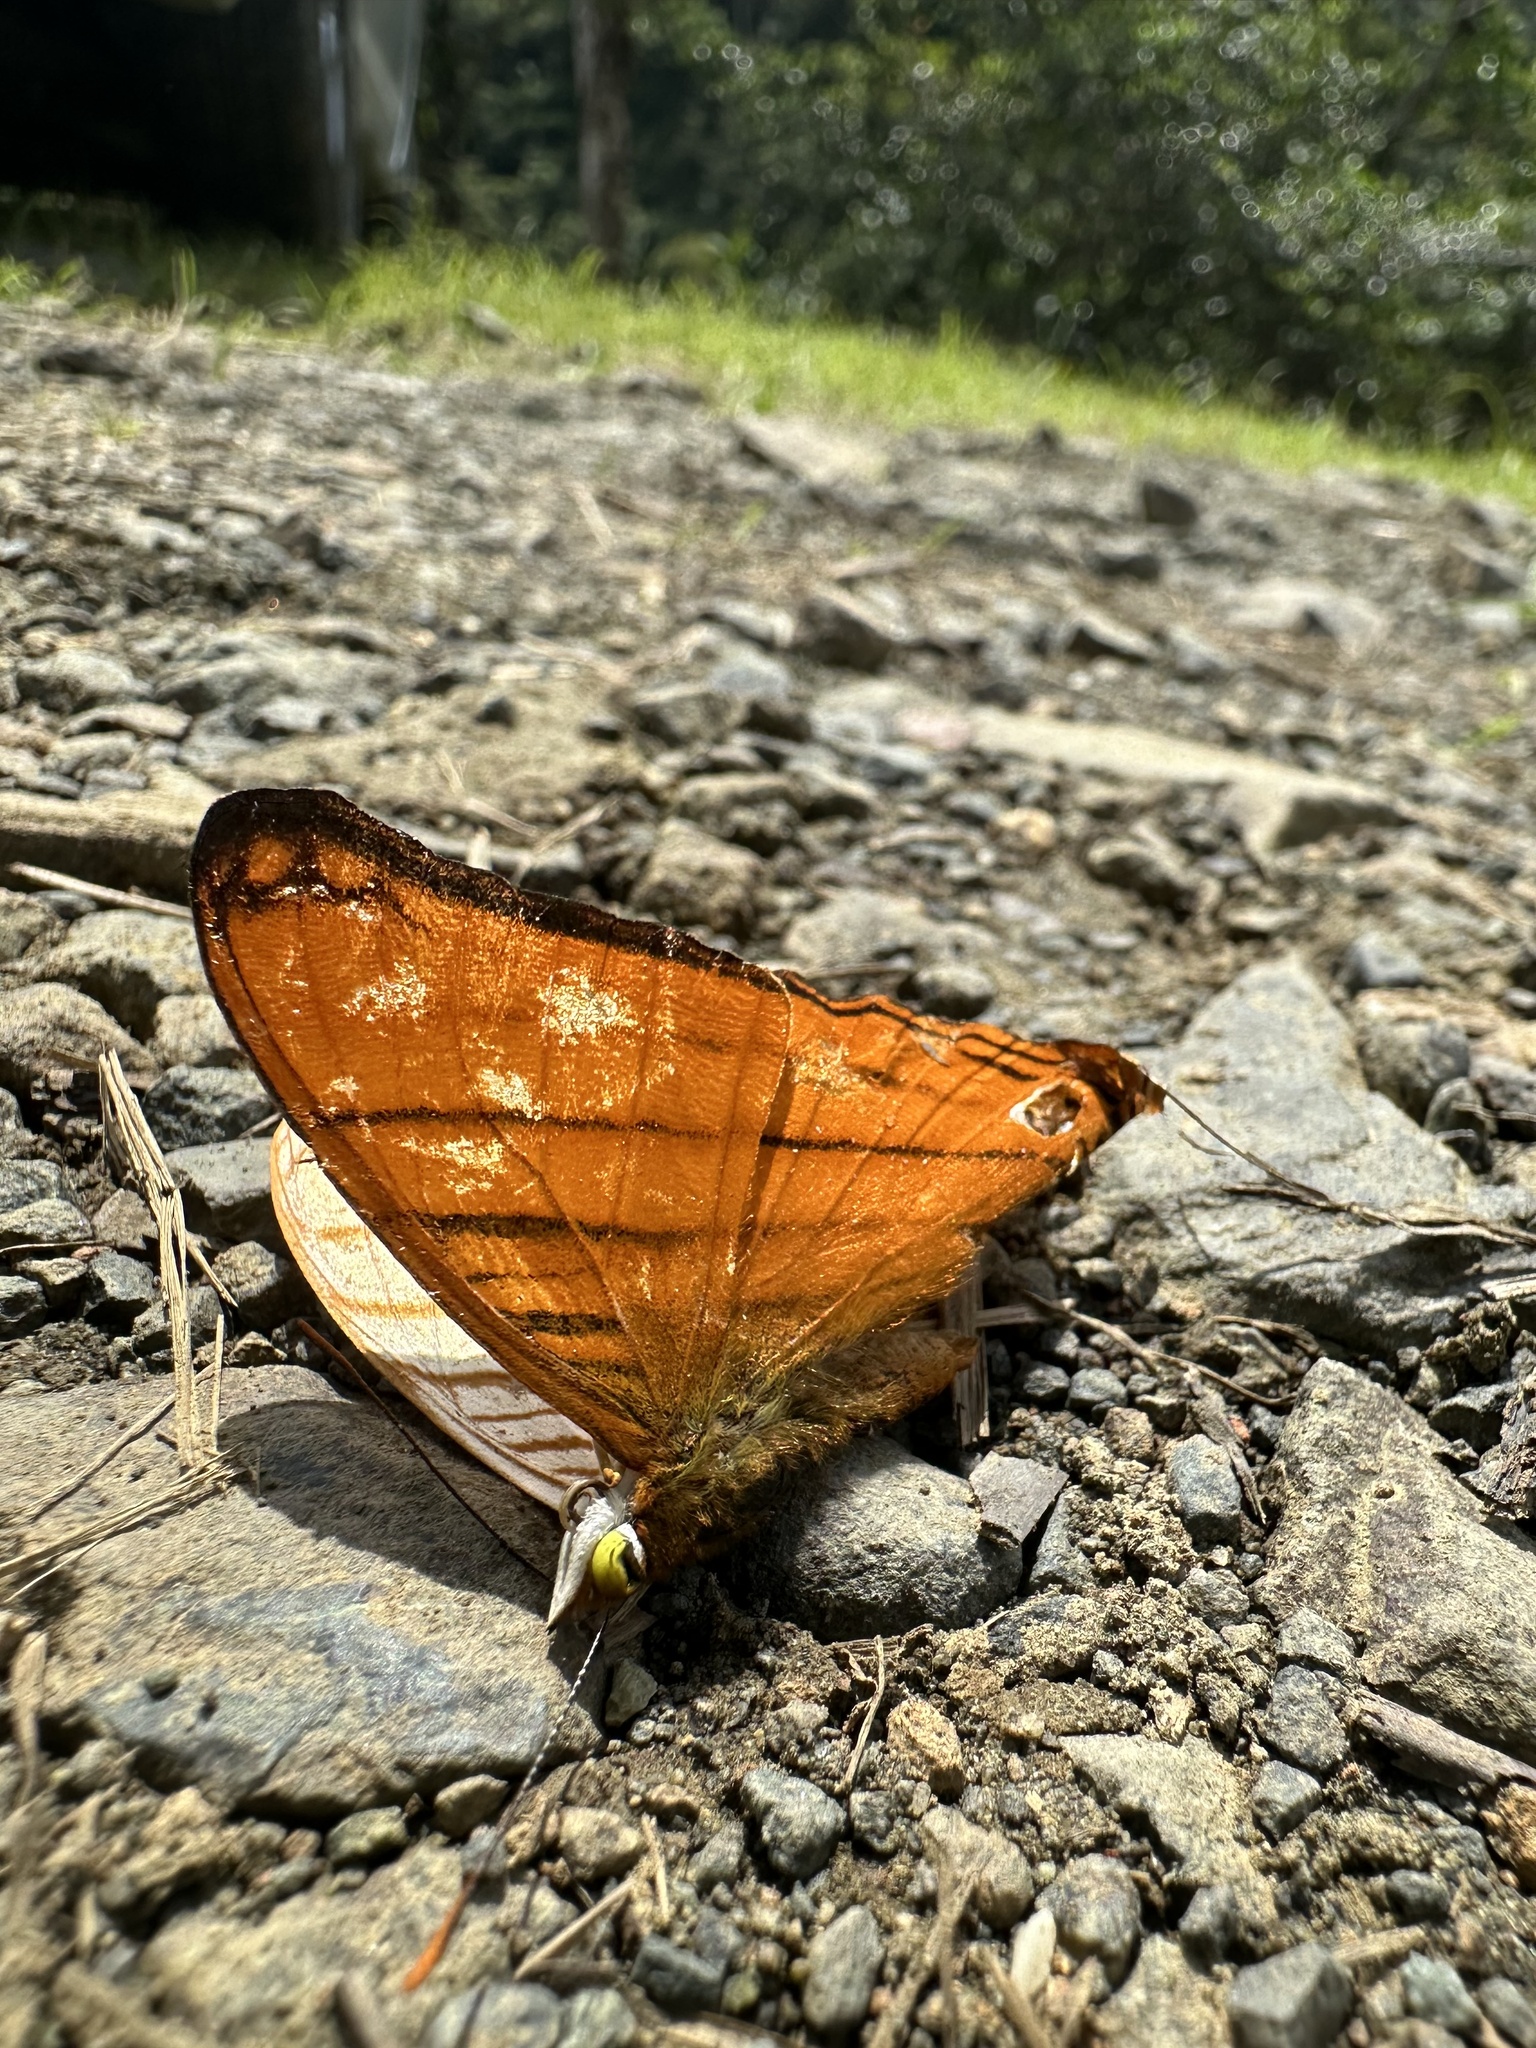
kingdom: Animalia
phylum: Arthropoda
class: Insecta
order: Lepidoptera
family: Nymphalidae
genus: Marpesia
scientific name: Marpesia berania
